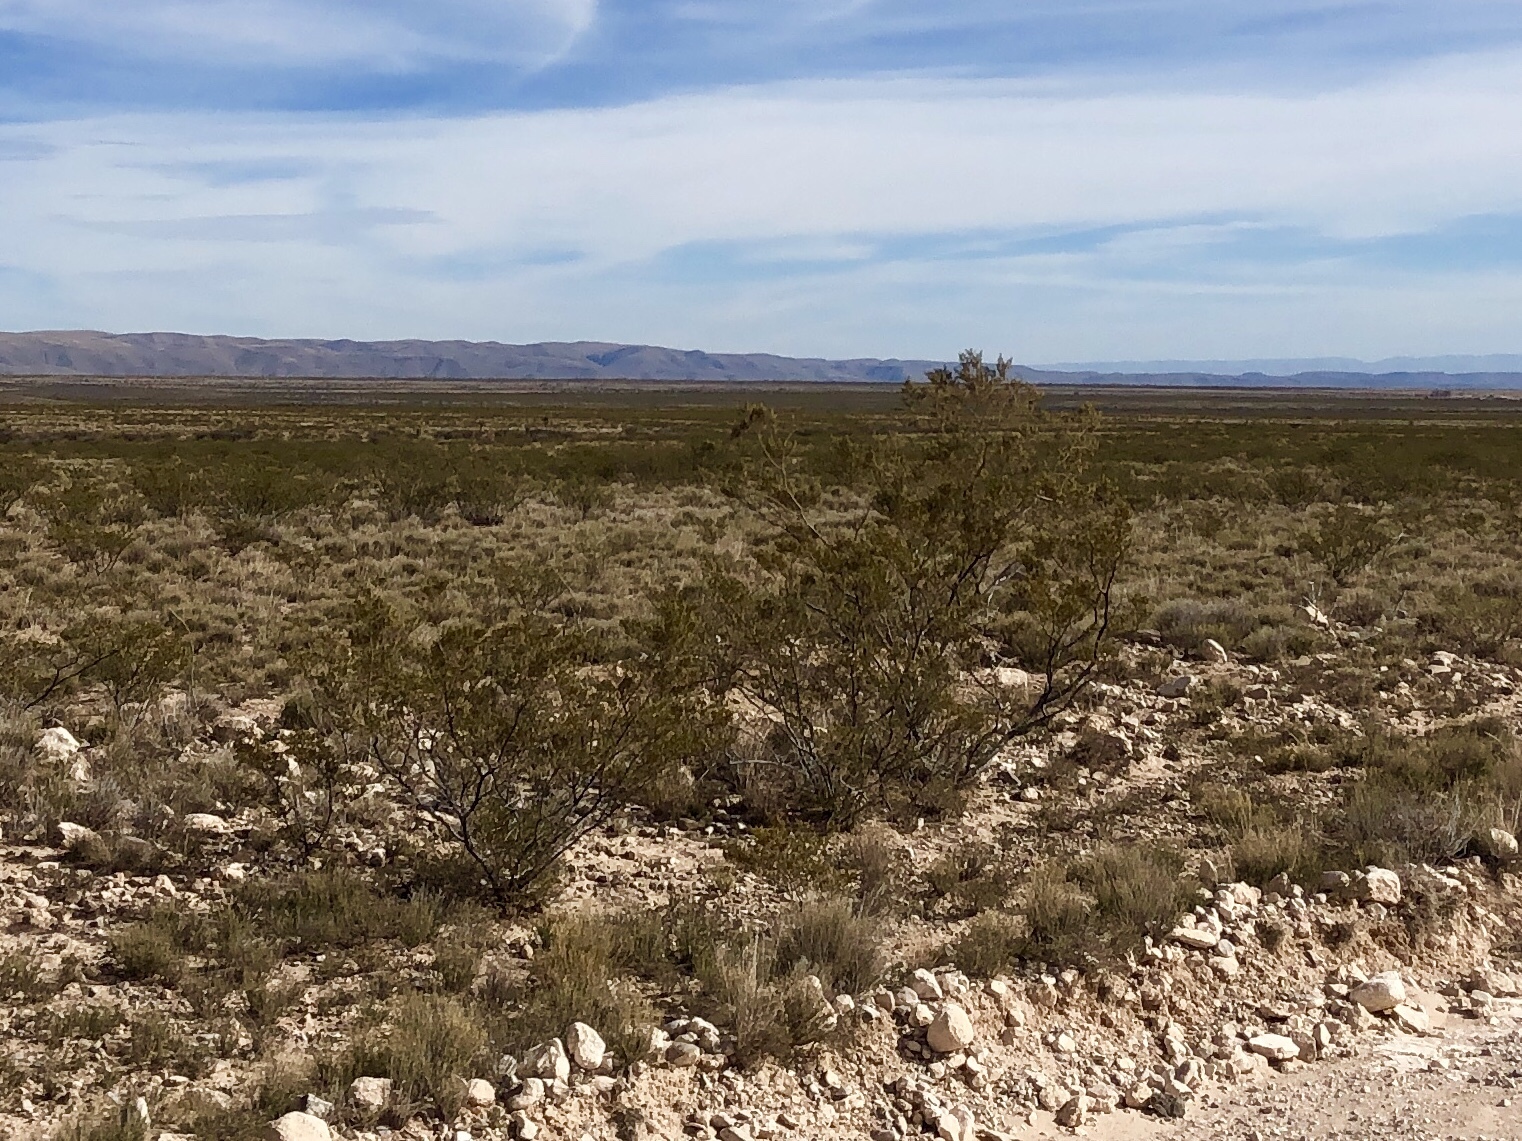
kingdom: Plantae
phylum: Tracheophyta
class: Magnoliopsida
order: Zygophyllales
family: Zygophyllaceae
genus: Larrea
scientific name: Larrea tridentata
